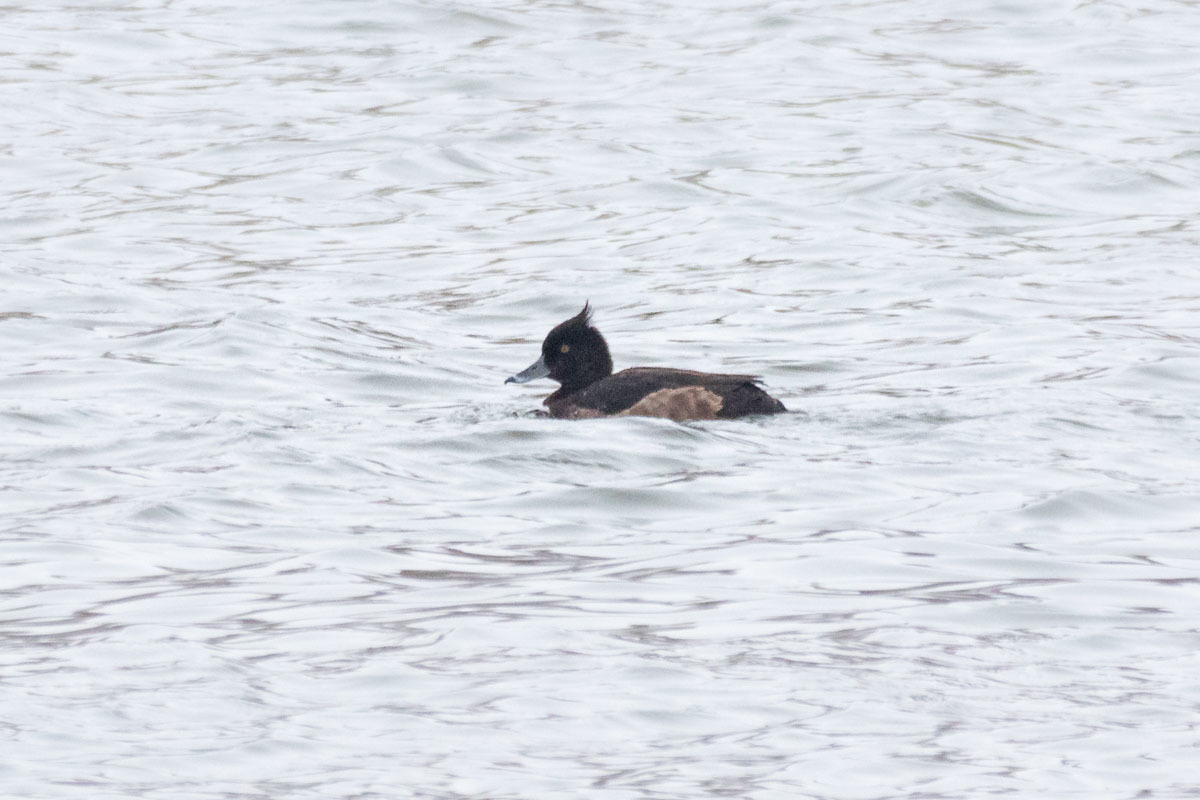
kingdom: Animalia
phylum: Chordata
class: Aves
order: Anseriformes
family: Anatidae
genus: Aythya
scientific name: Aythya fuligula
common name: Tufted duck
